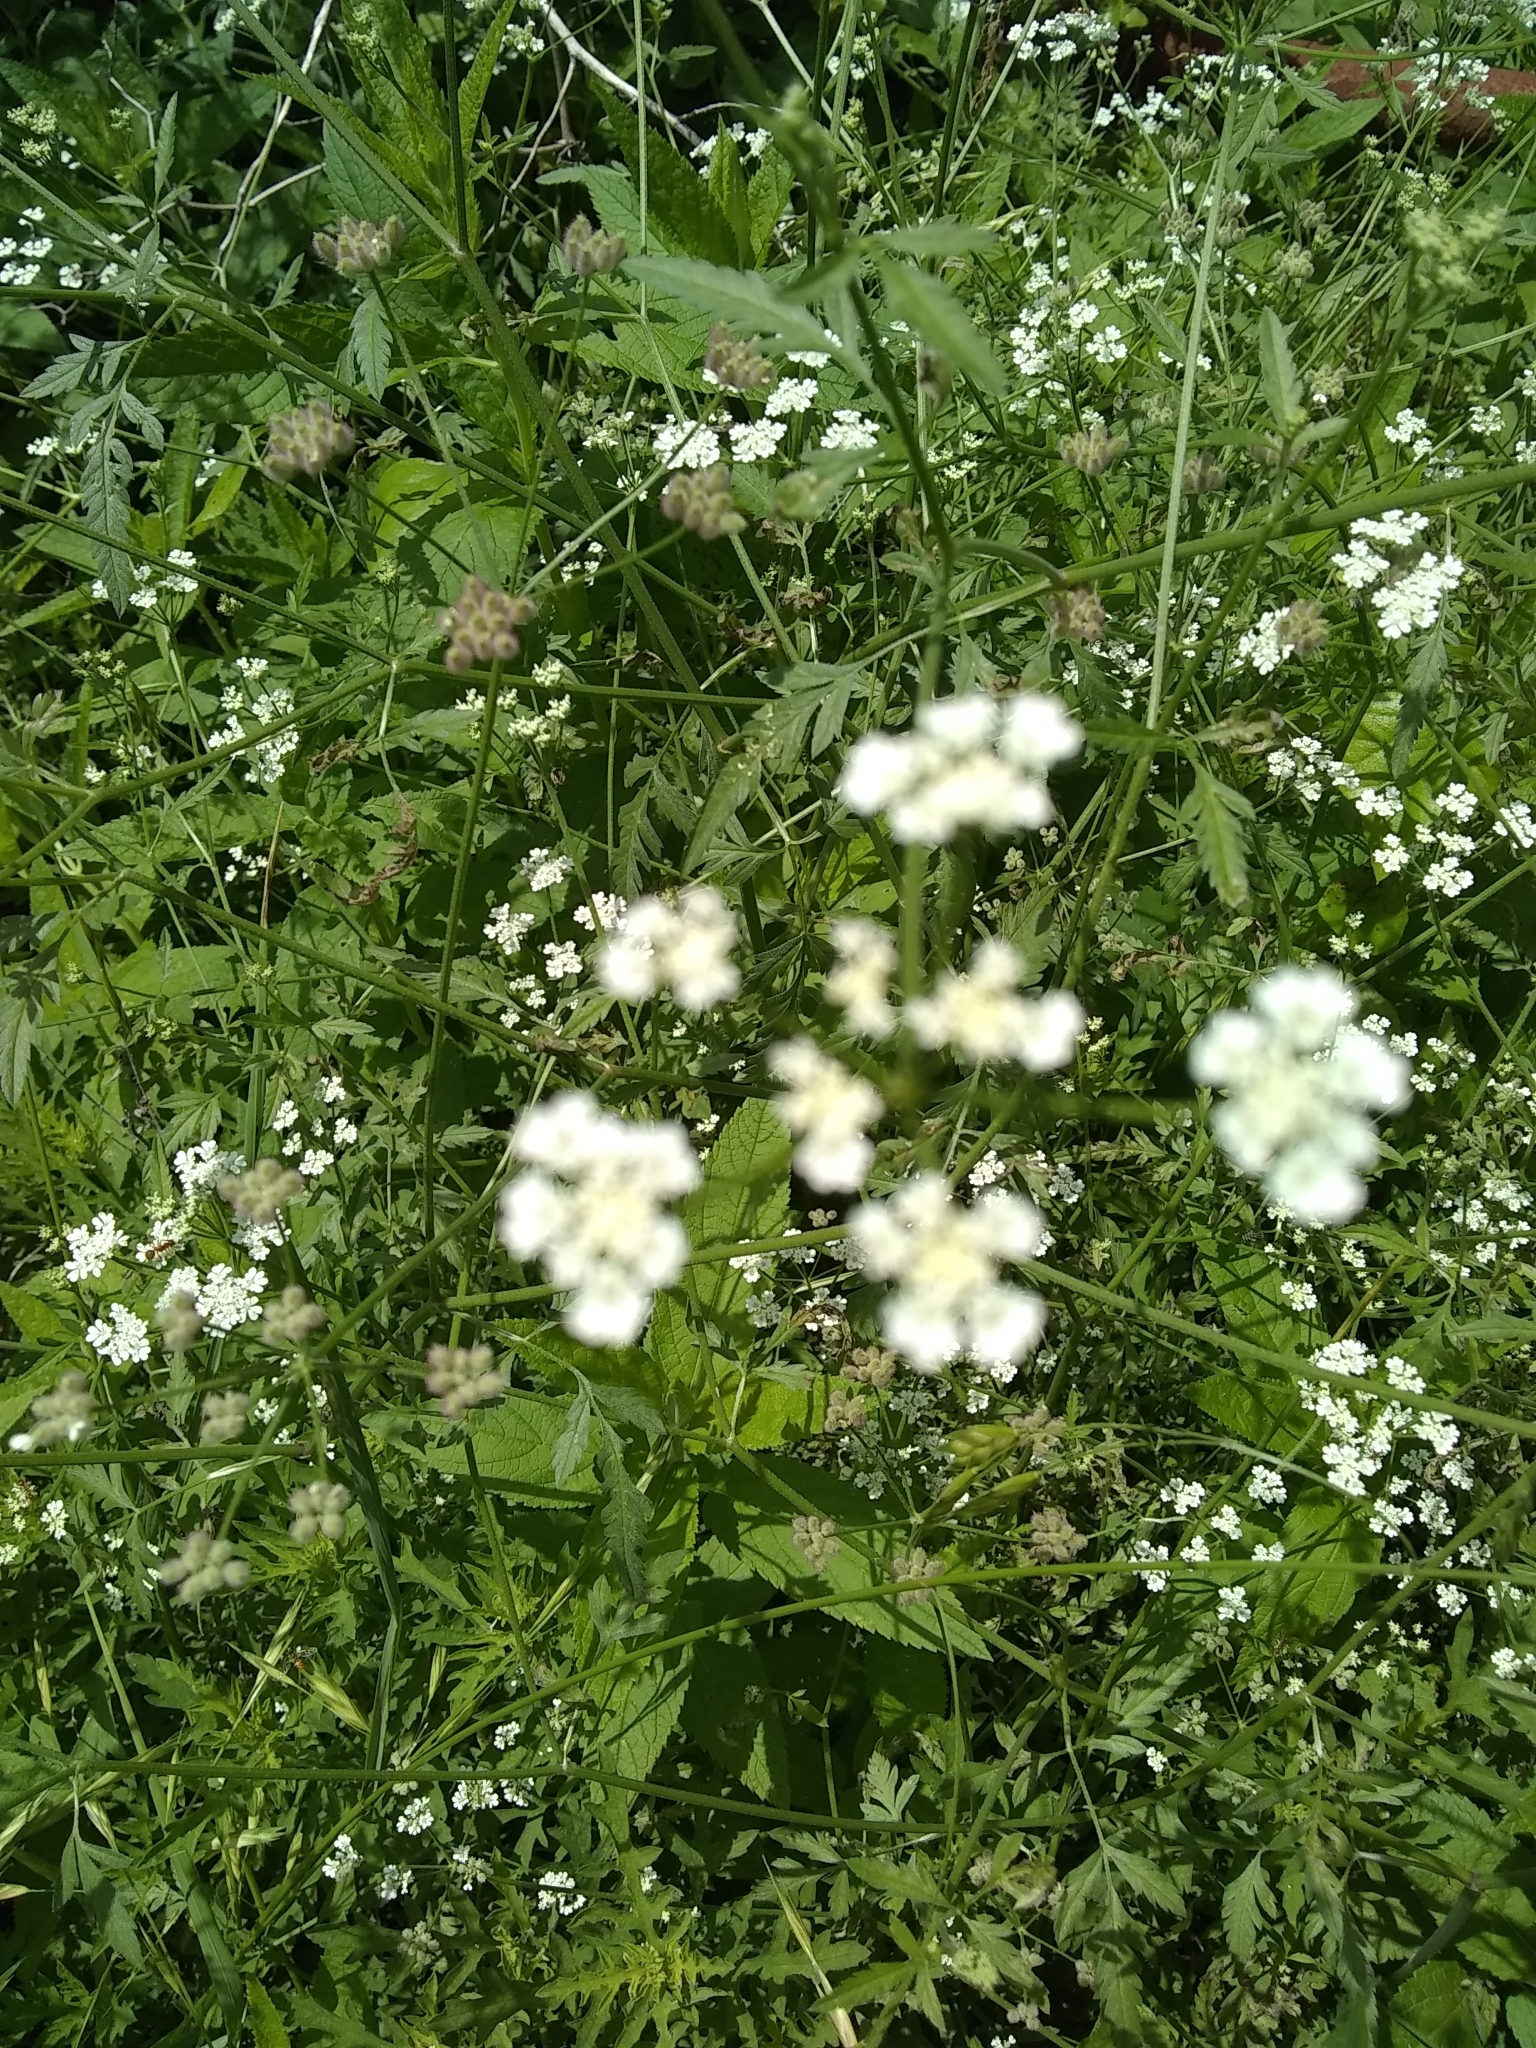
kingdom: Plantae
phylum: Tracheophyta
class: Magnoliopsida
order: Apiales
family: Apiaceae
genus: Torilis
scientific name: Torilis arvensis
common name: Spreading hedge-parsley
